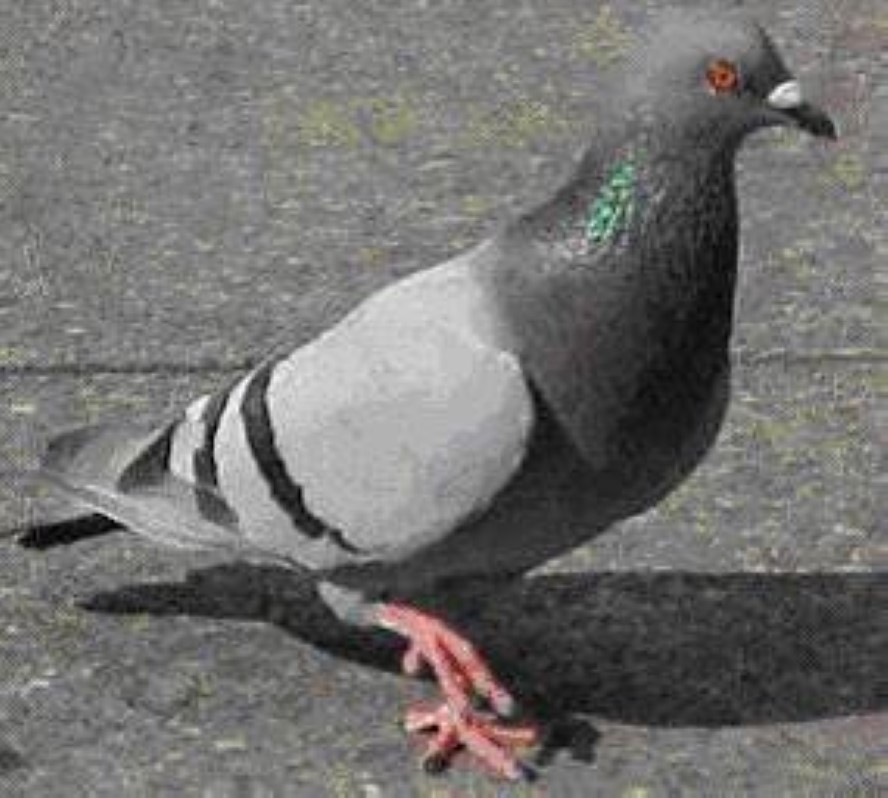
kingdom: Animalia
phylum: Chordata
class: Aves
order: Columbiformes
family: Columbidae
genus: Columba
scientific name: Columba livia
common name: Rock pigeon
